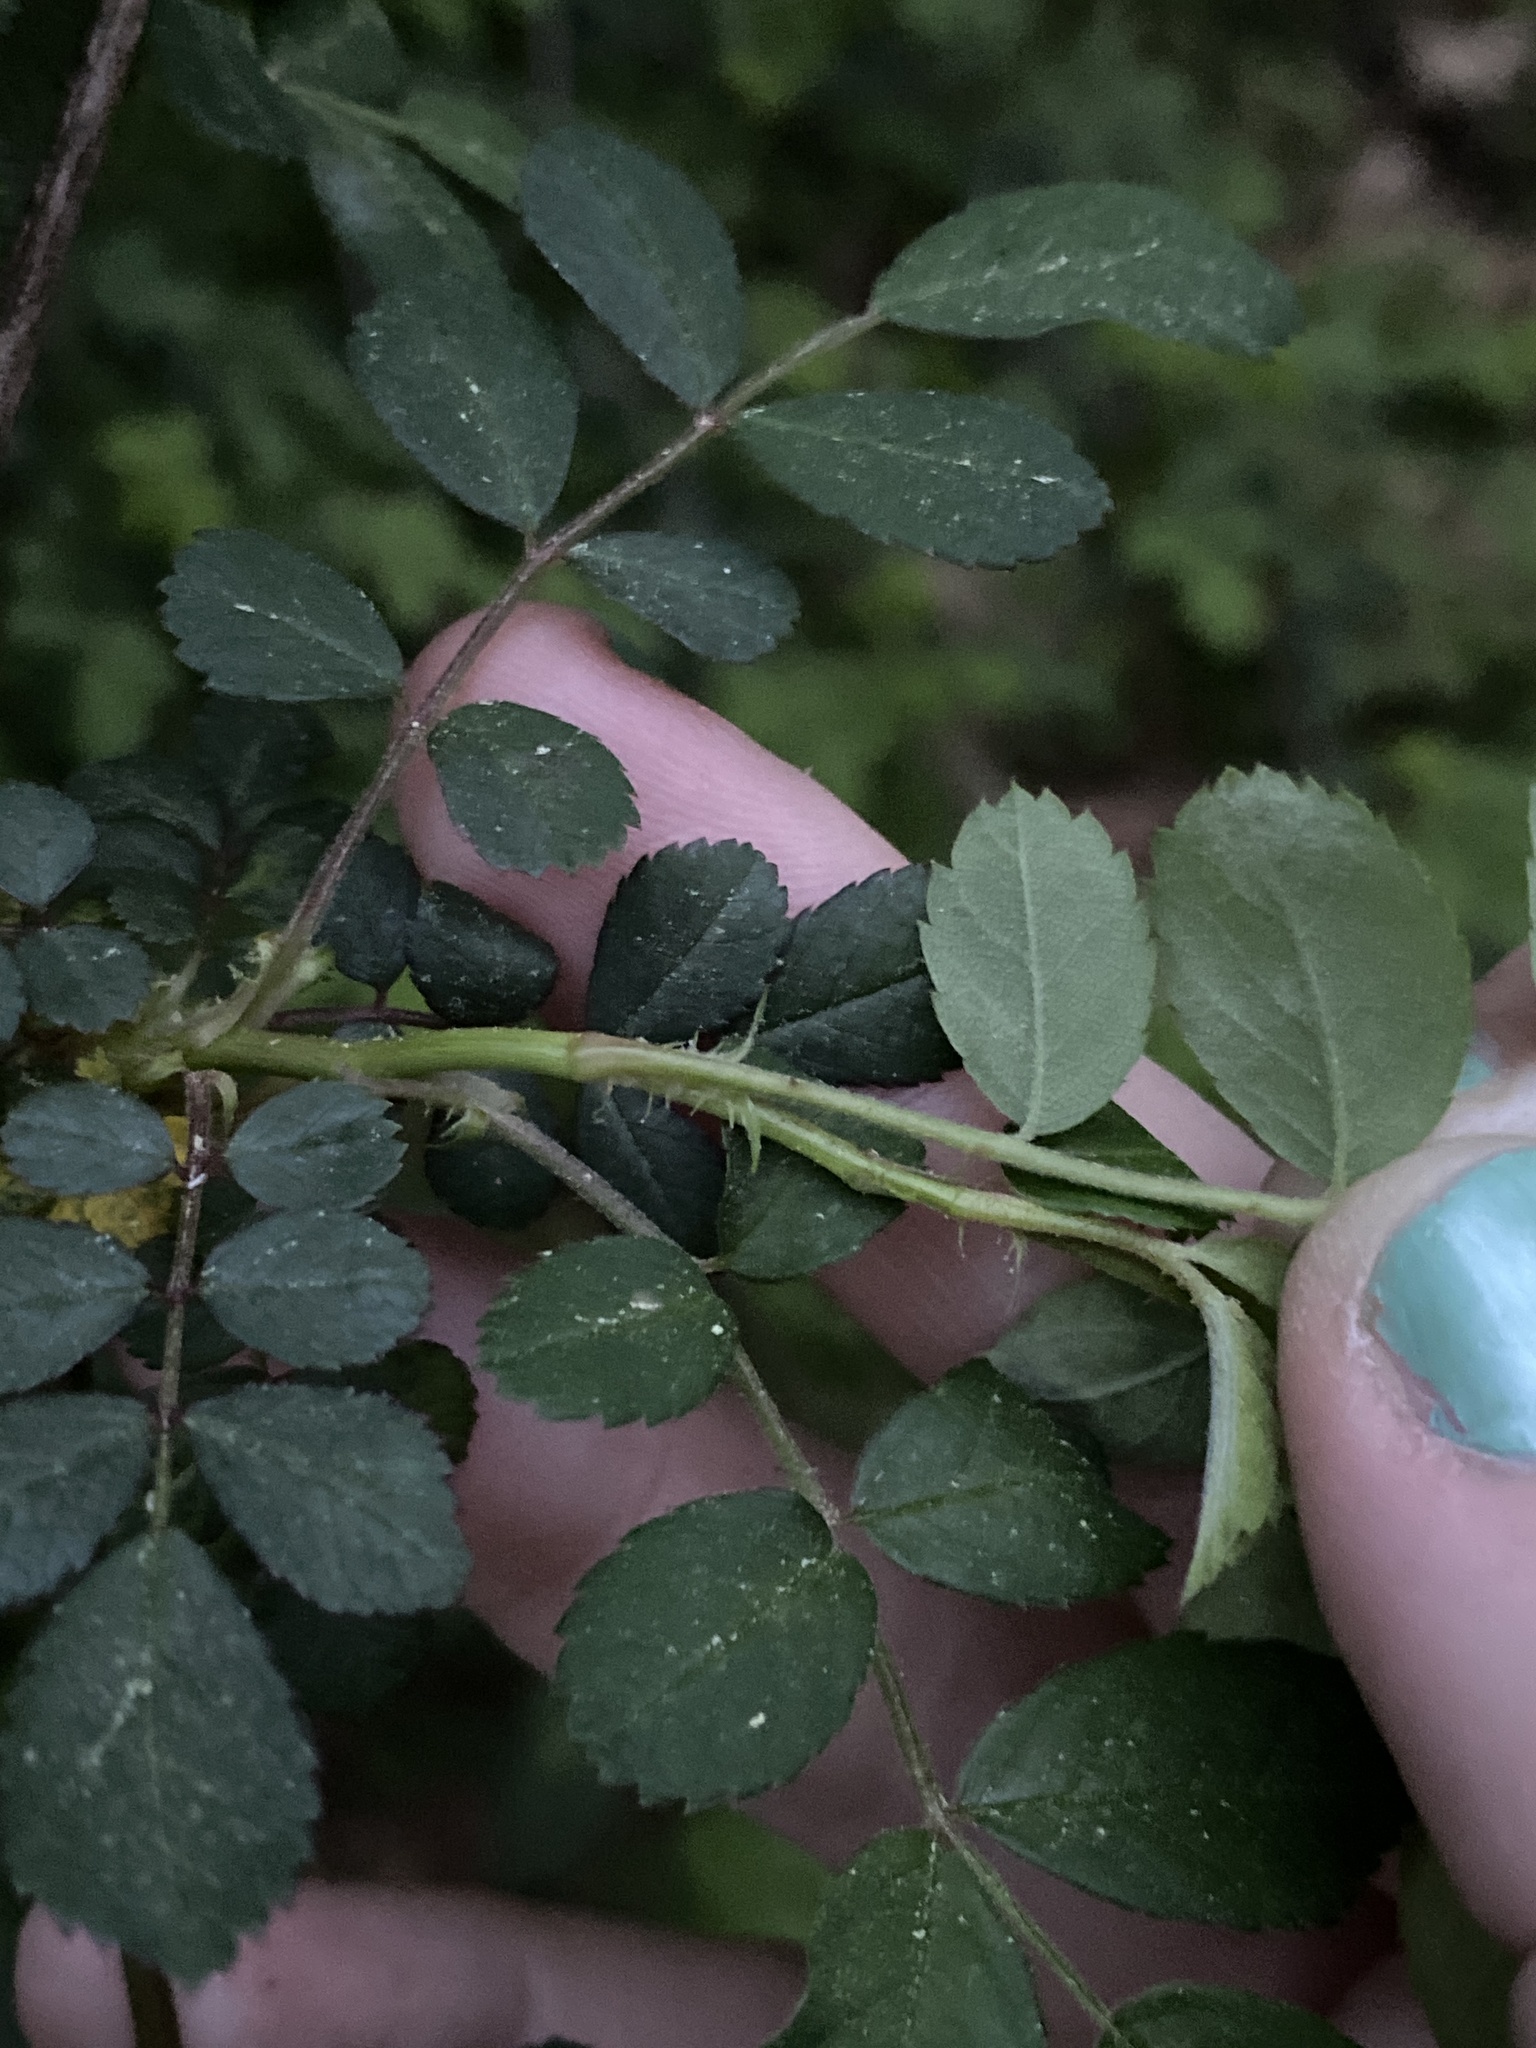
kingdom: Plantae
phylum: Tracheophyta
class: Magnoliopsida
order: Rosales
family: Rosaceae
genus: Rosa
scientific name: Rosa multiflora
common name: Multiflora rose
